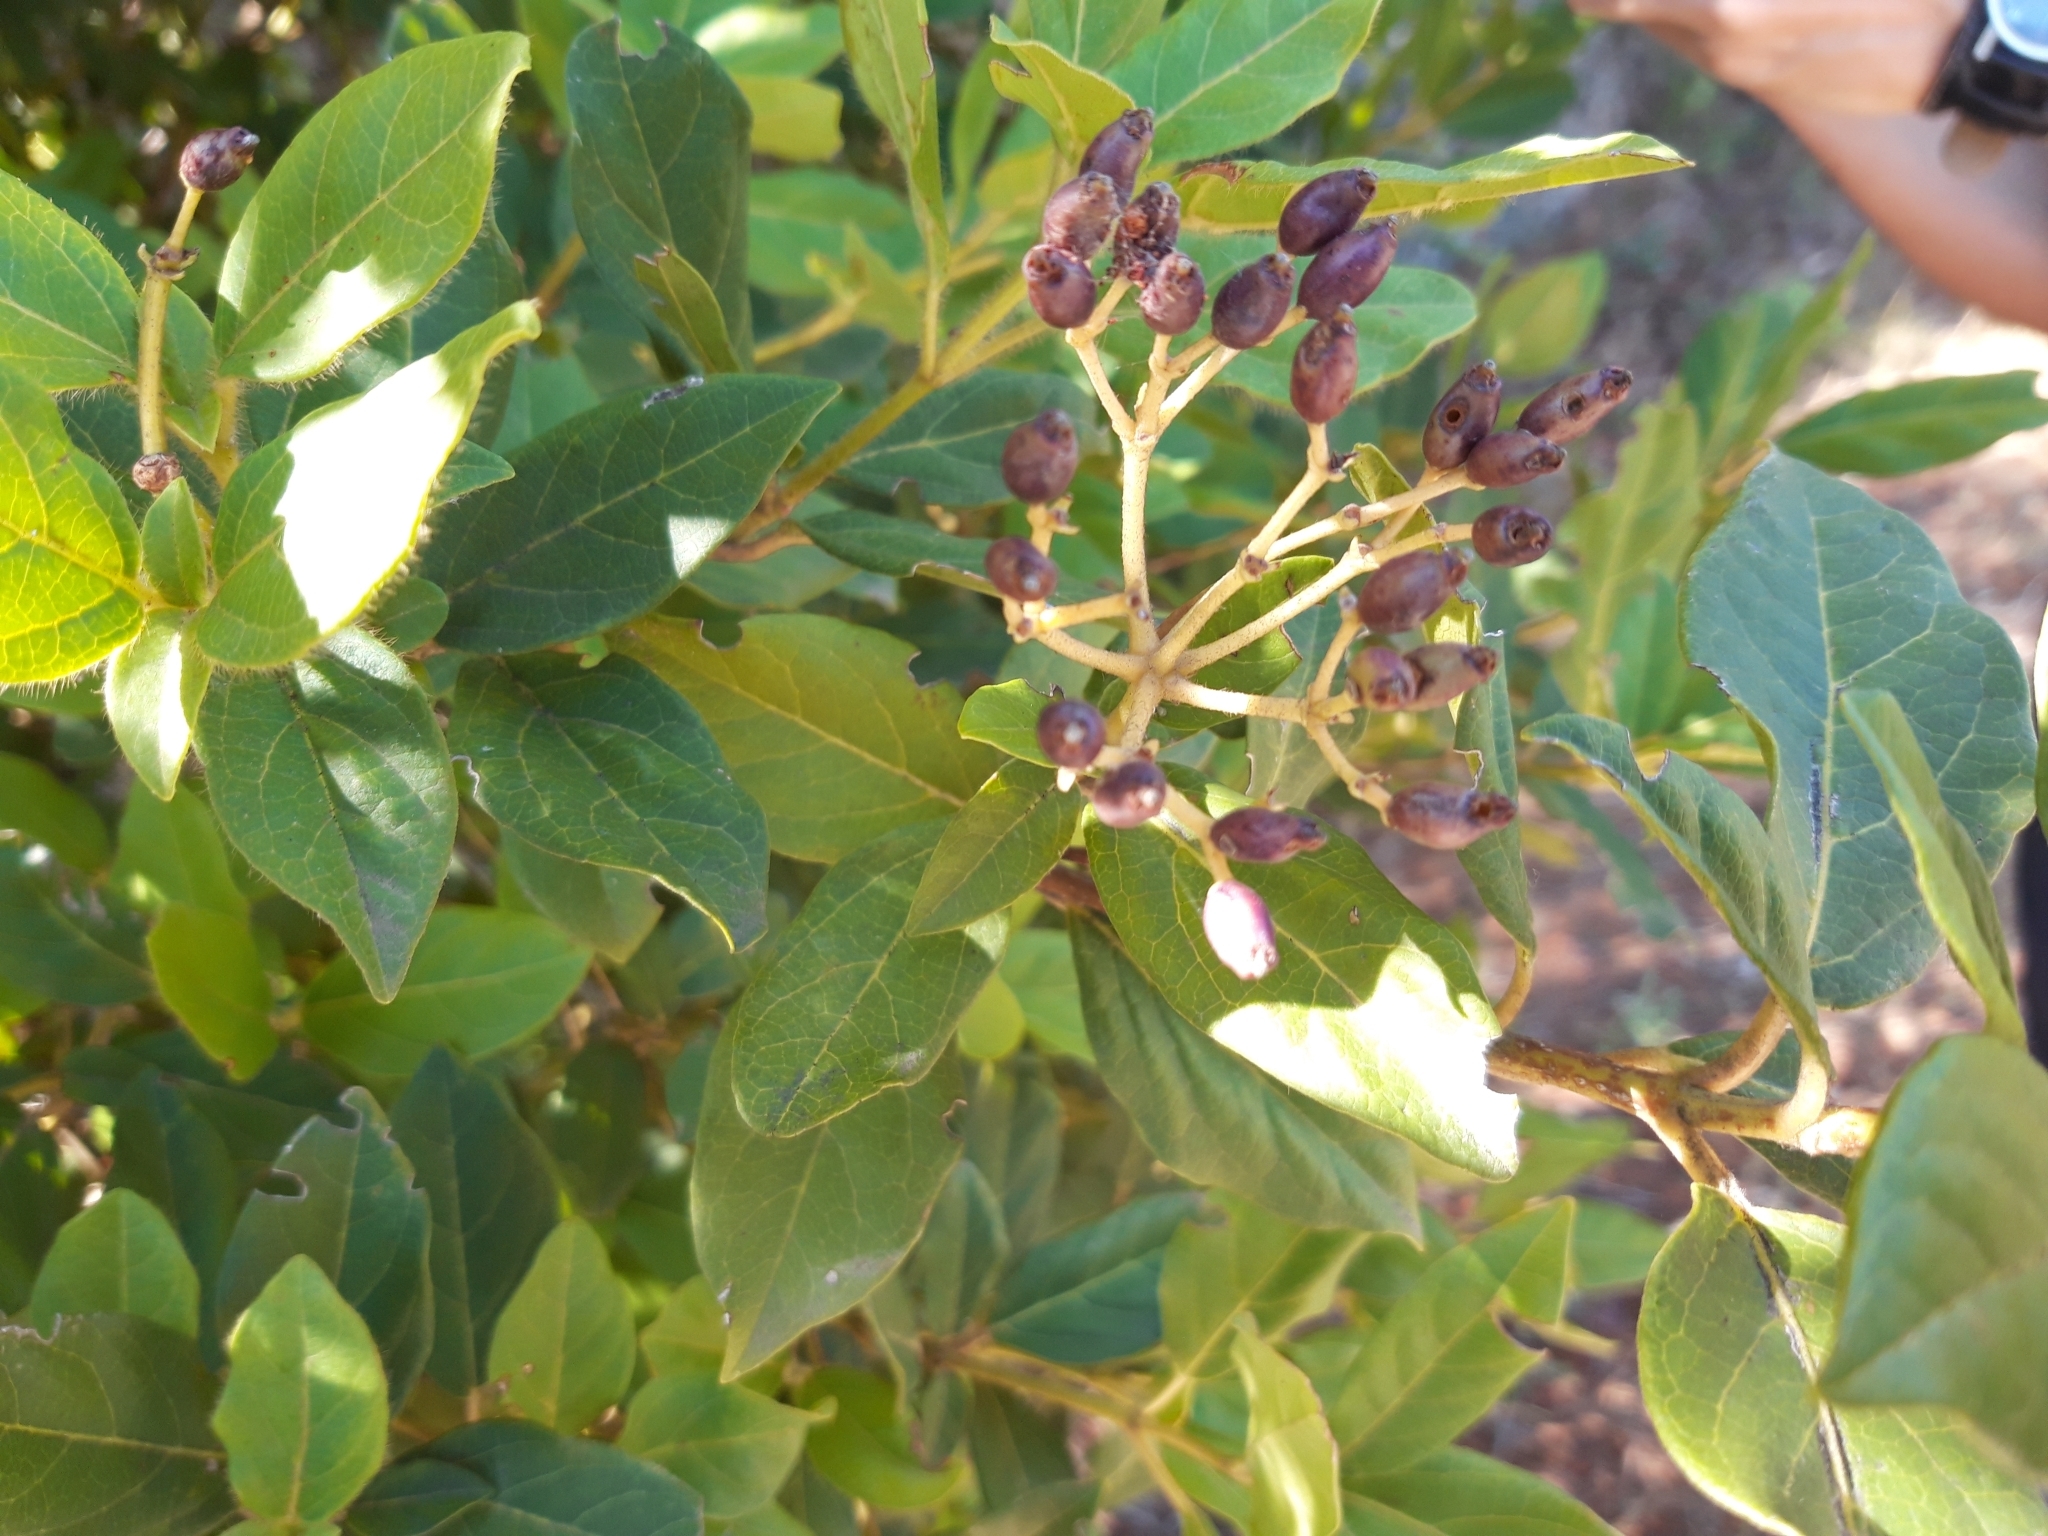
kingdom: Plantae
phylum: Tracheophyta
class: Magnoliopsida
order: Dipsacales
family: Viburnaceae
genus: Viburnum
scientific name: Viburnum tinus
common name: Laurustinus
